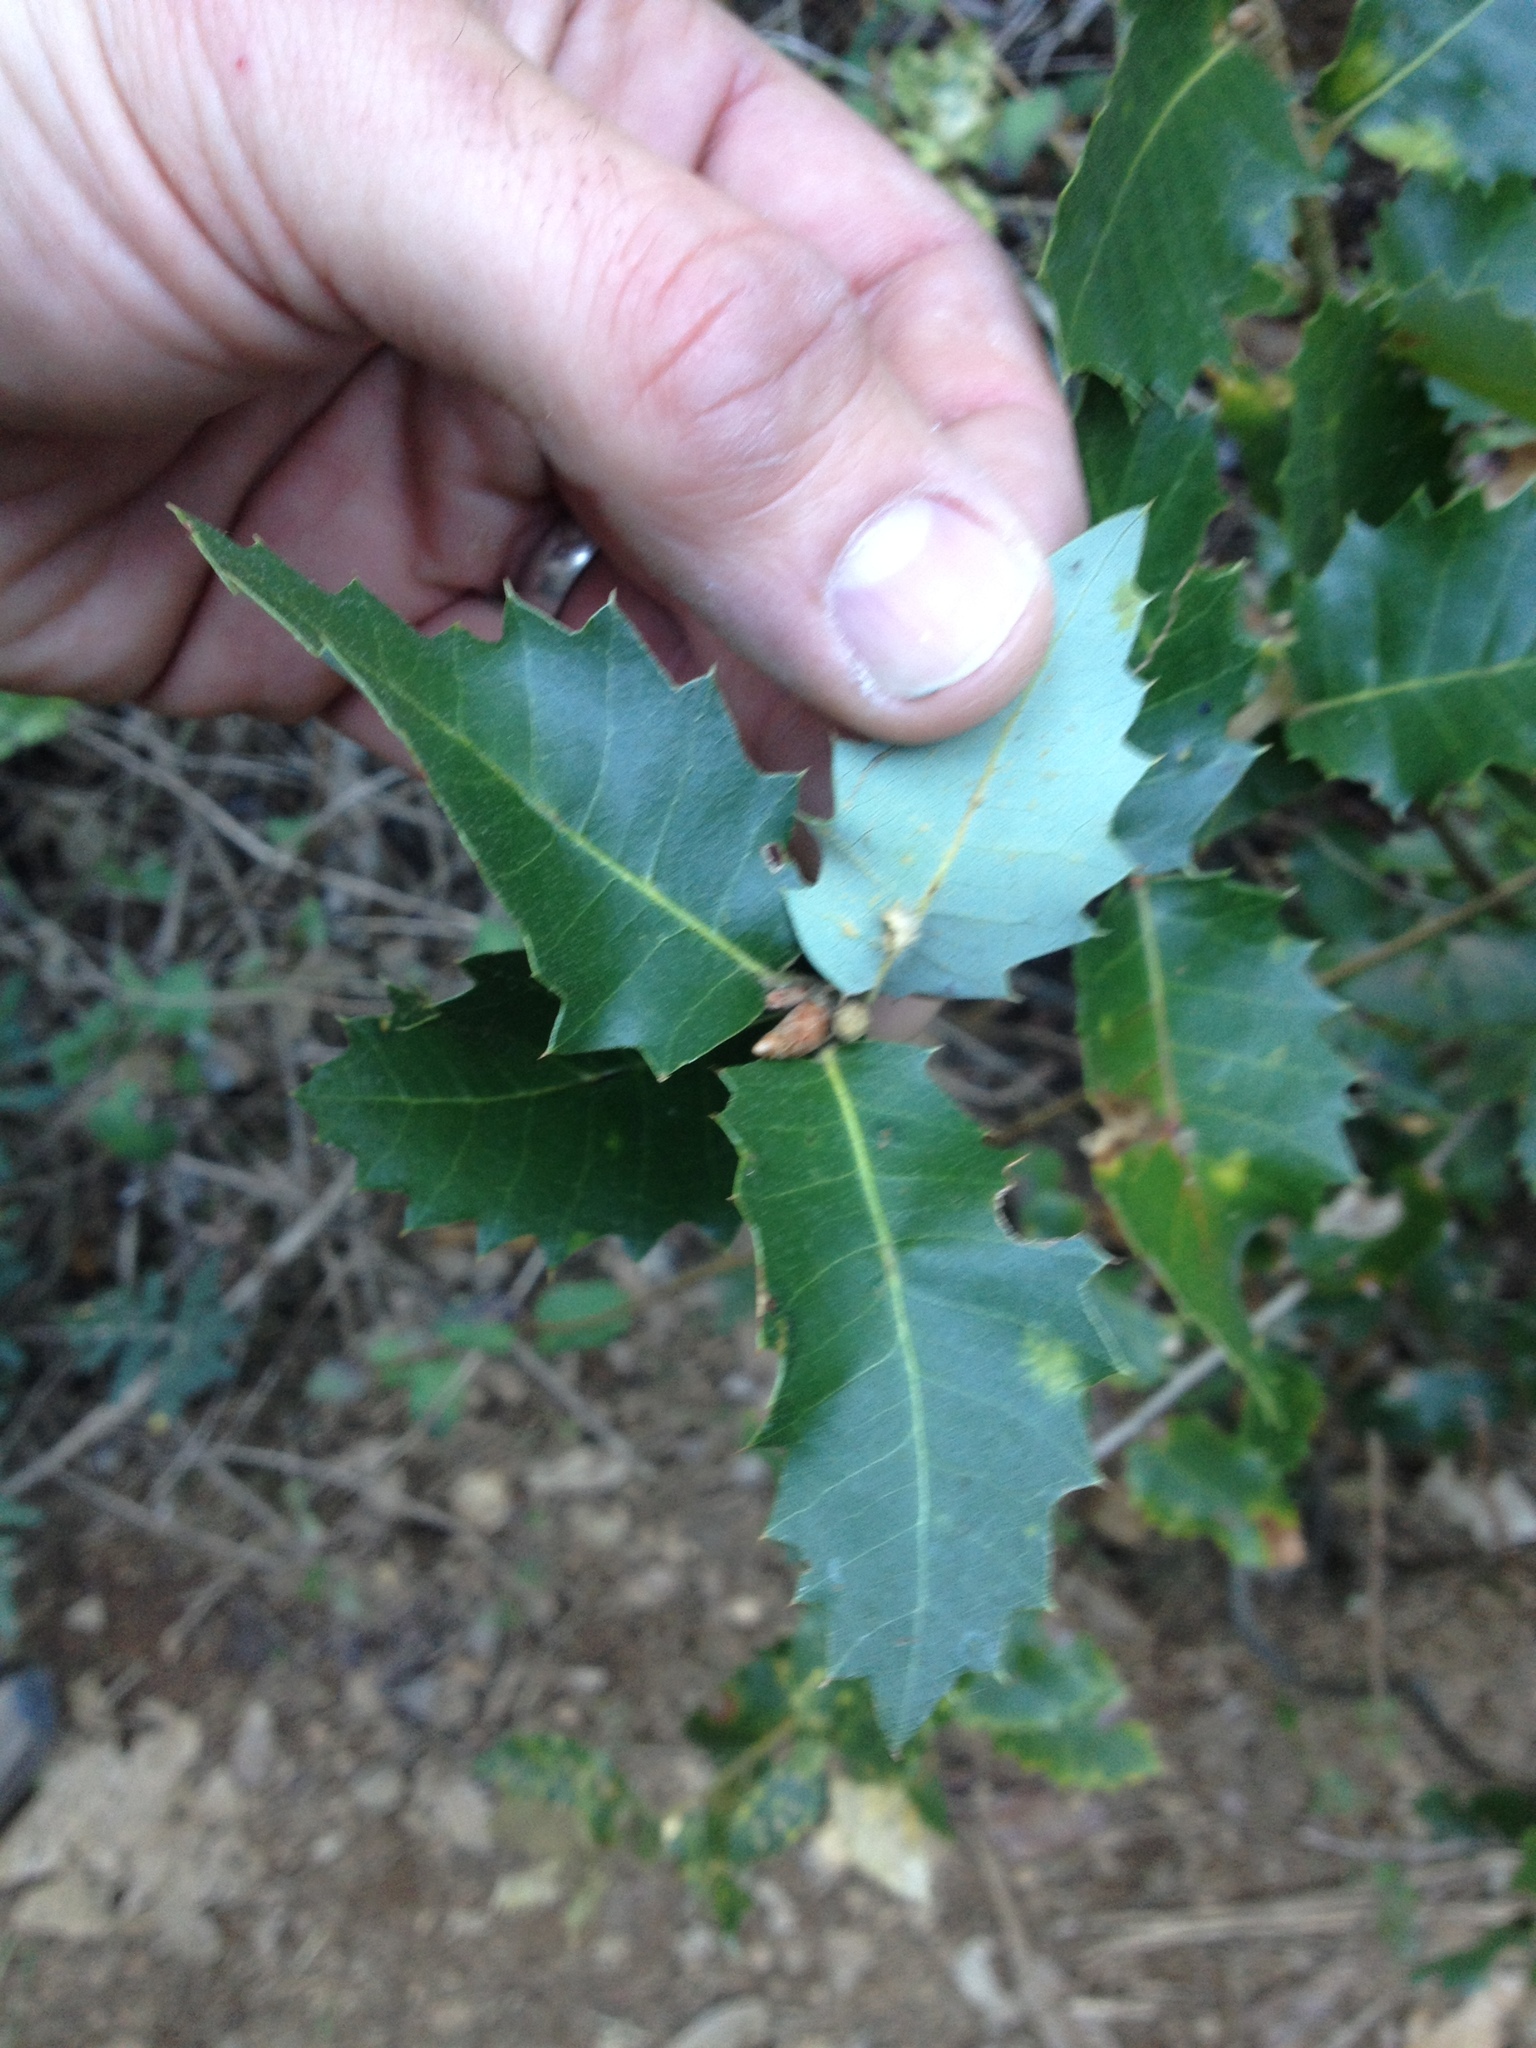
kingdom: Plantae
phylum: Tracheophyta
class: Magnoliopsida
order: Fagales
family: Fagaceae
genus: Quercus
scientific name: Quercus chrysolepis
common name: Canyon live oak
